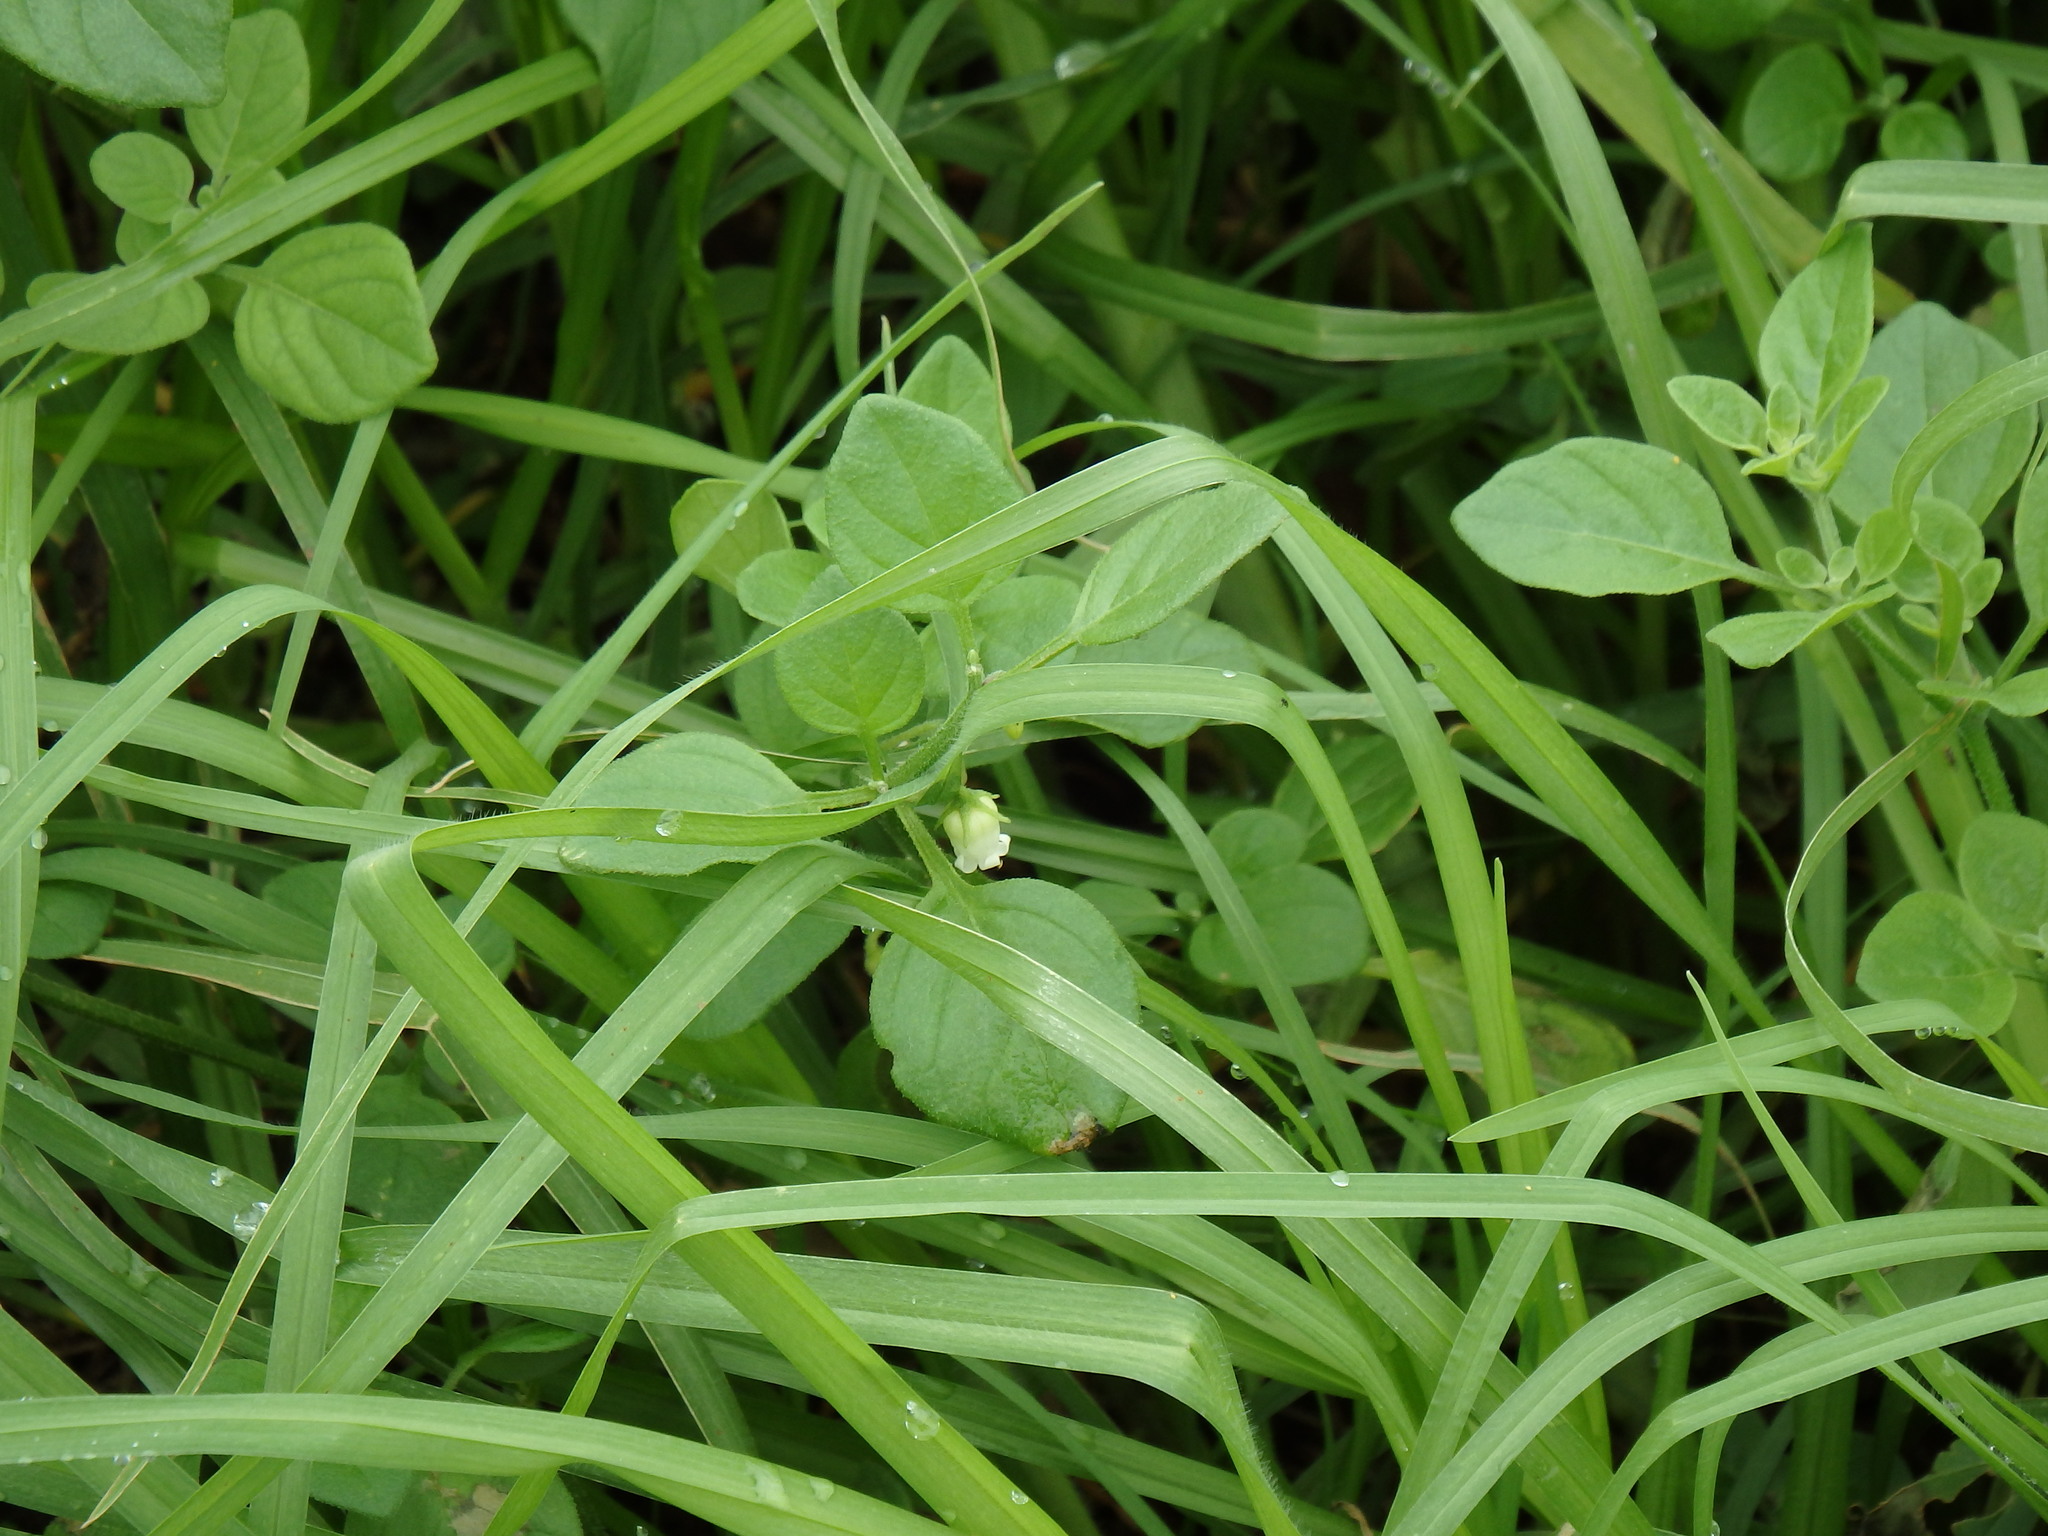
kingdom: Plantae
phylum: Tracheophyta
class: Magnoliopsida
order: Solanales
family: Solanaceae
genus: Salpichroa
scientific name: Salpichroa origanifolia
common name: Lily-of-the-valley-vine
